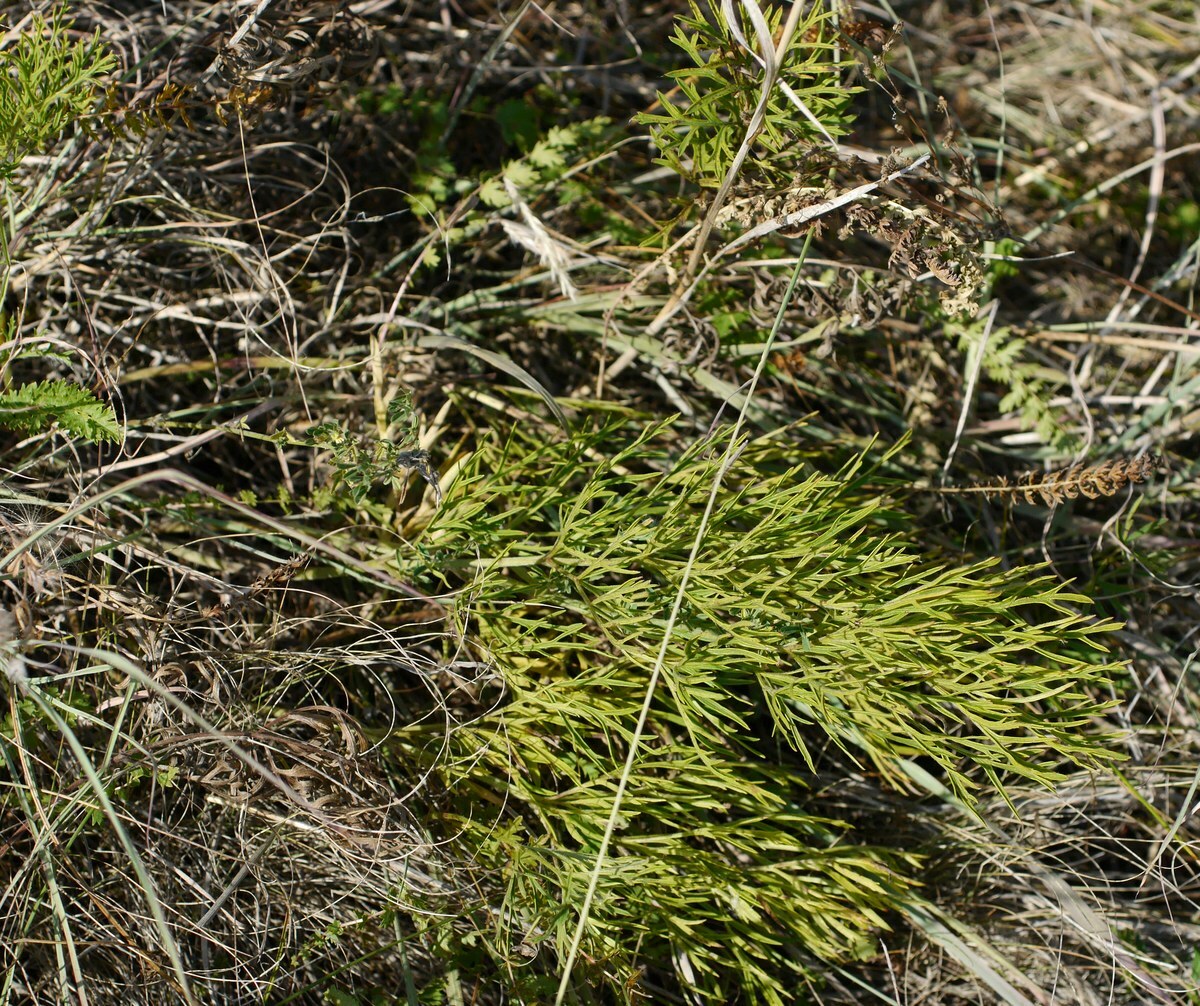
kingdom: Plantae
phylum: Tracheophyta
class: Magnoliopsida
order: Ranunculales
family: Ranunculaceae
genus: Pulsatilla
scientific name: Pulsatilla pratensis
